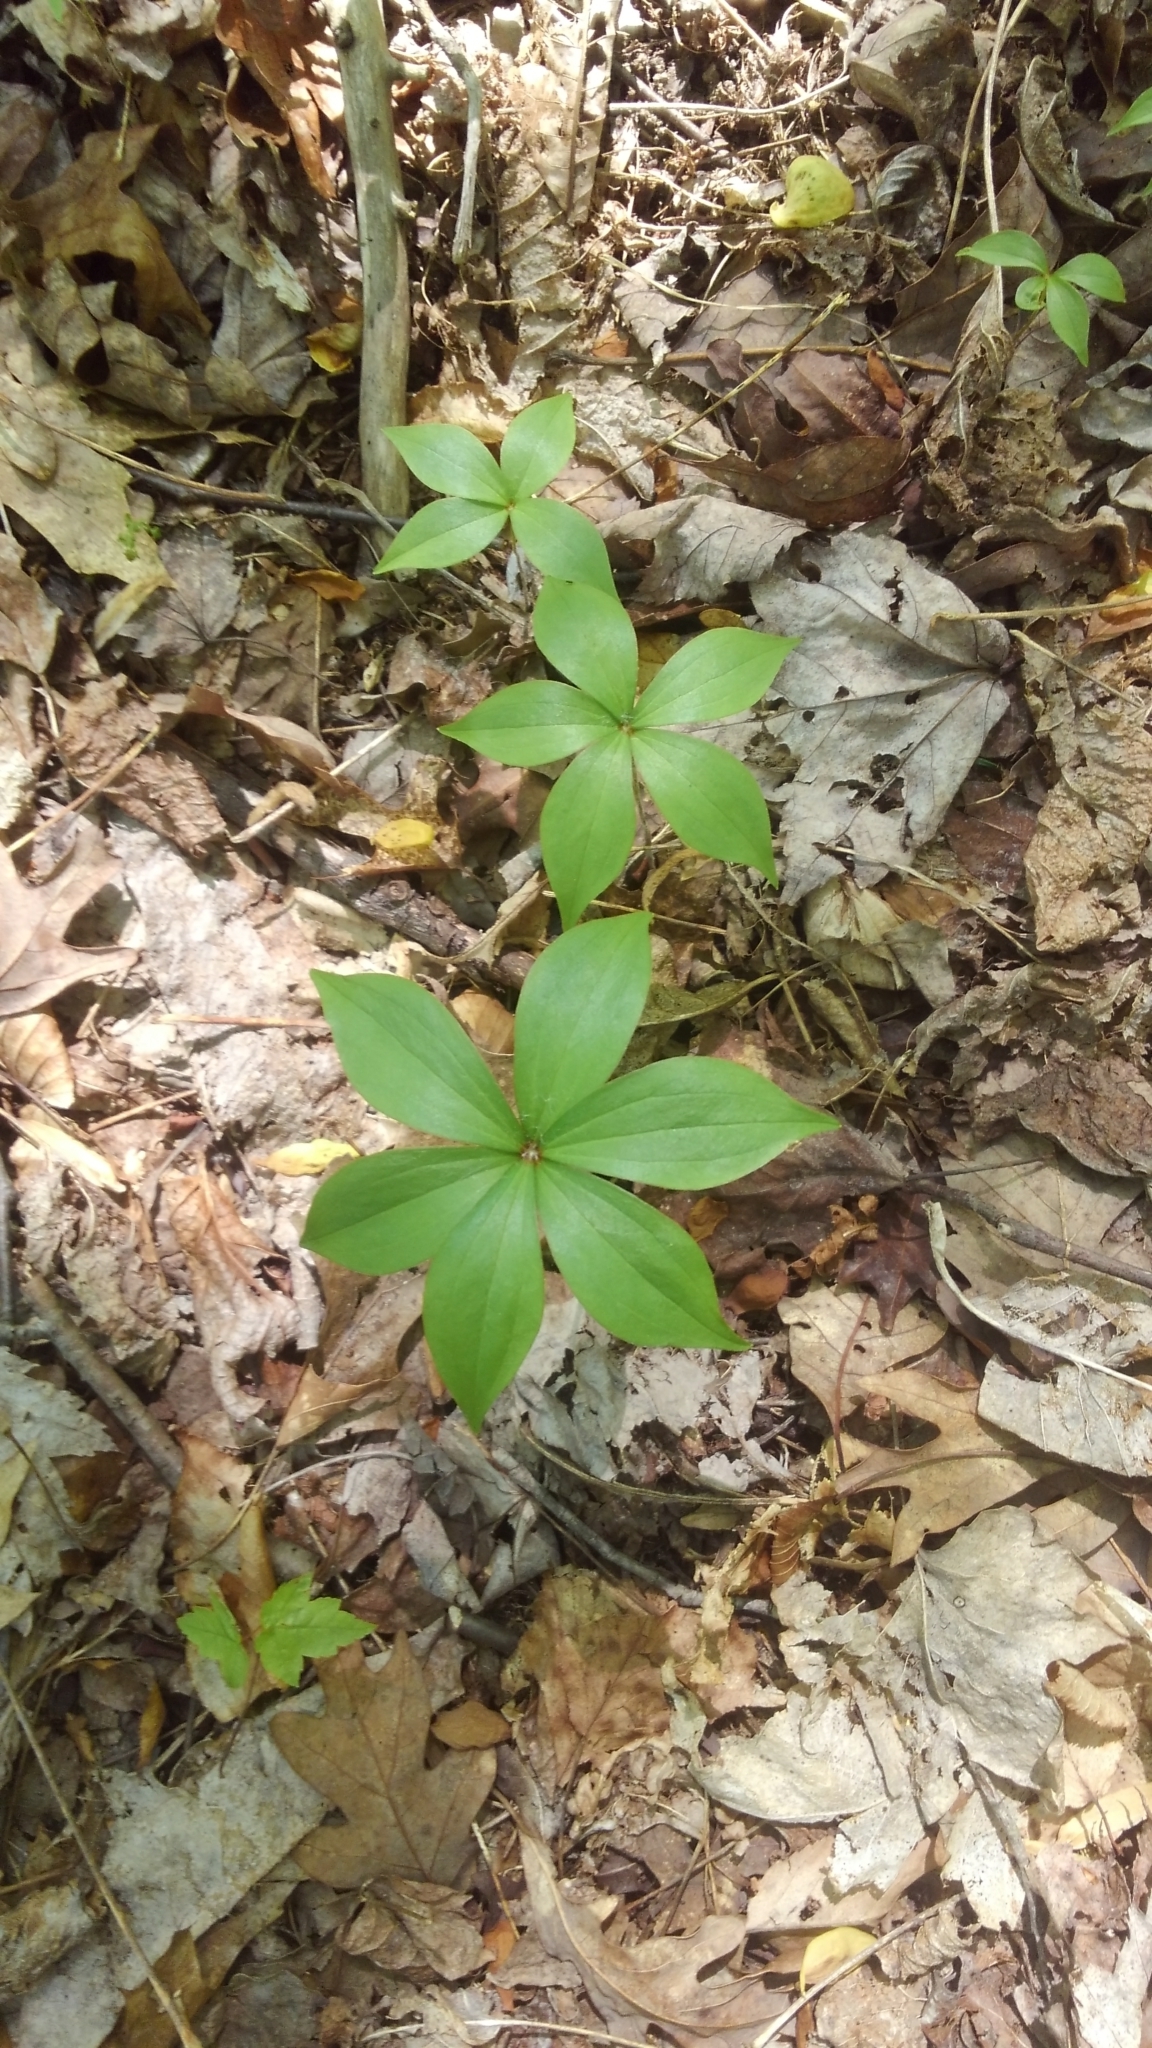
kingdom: Plantae
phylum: Tracheophyta
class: Liliopsida
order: Liliales
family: Liliaceae
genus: Medeola
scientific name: Medeola virginiana
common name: Indian cucumber-root
